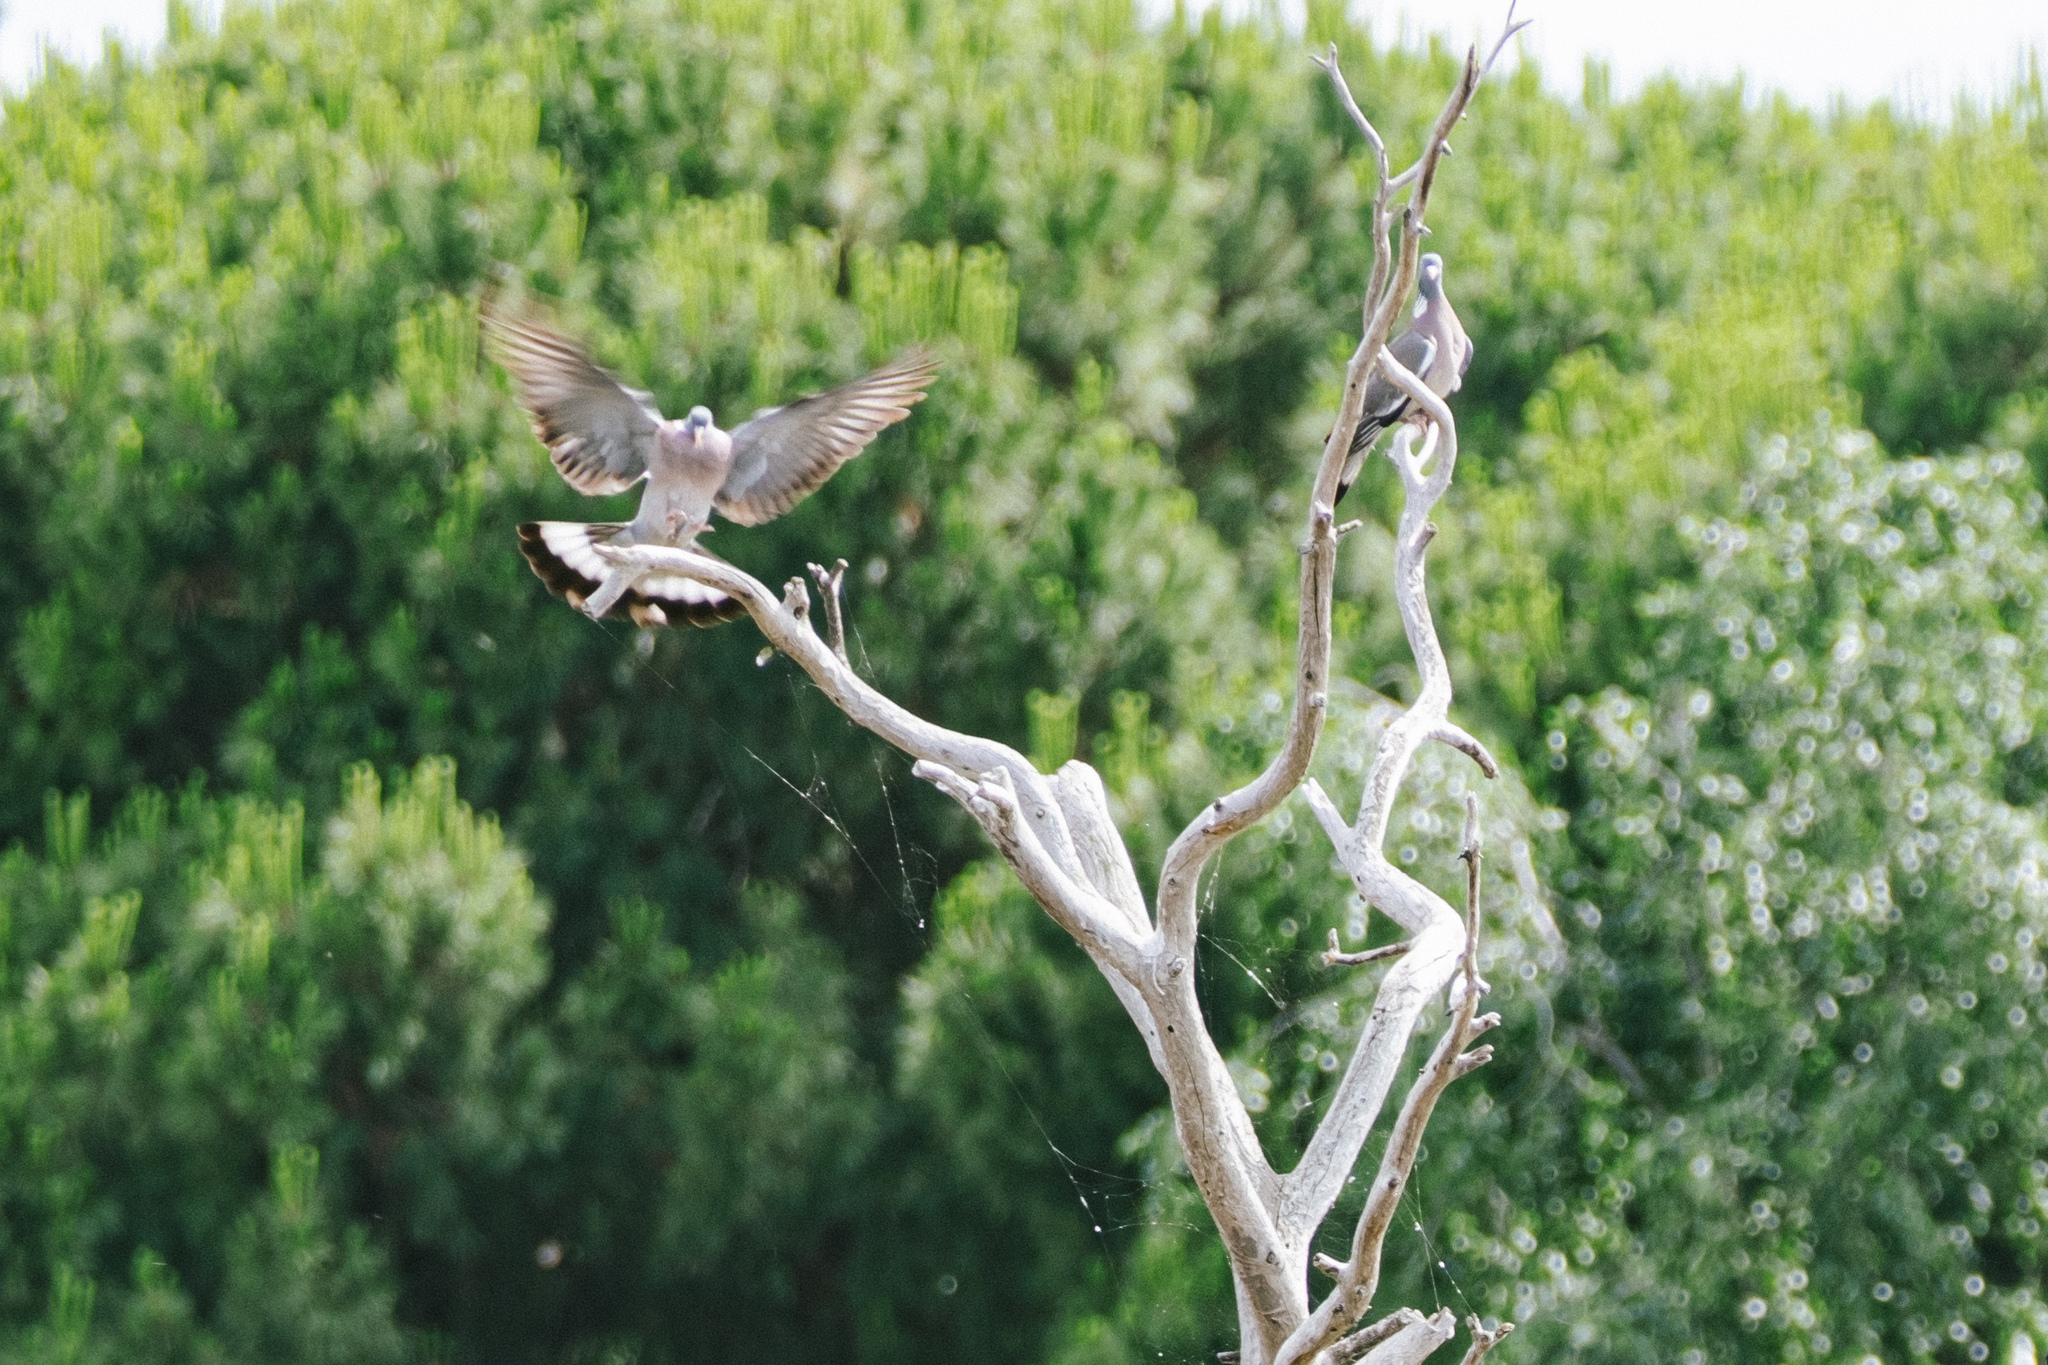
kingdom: Animalia
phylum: Chordata
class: Aves
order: Columbiformes
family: Columbidae
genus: Columba
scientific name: Columba palumbus
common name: Common wood pigeon
